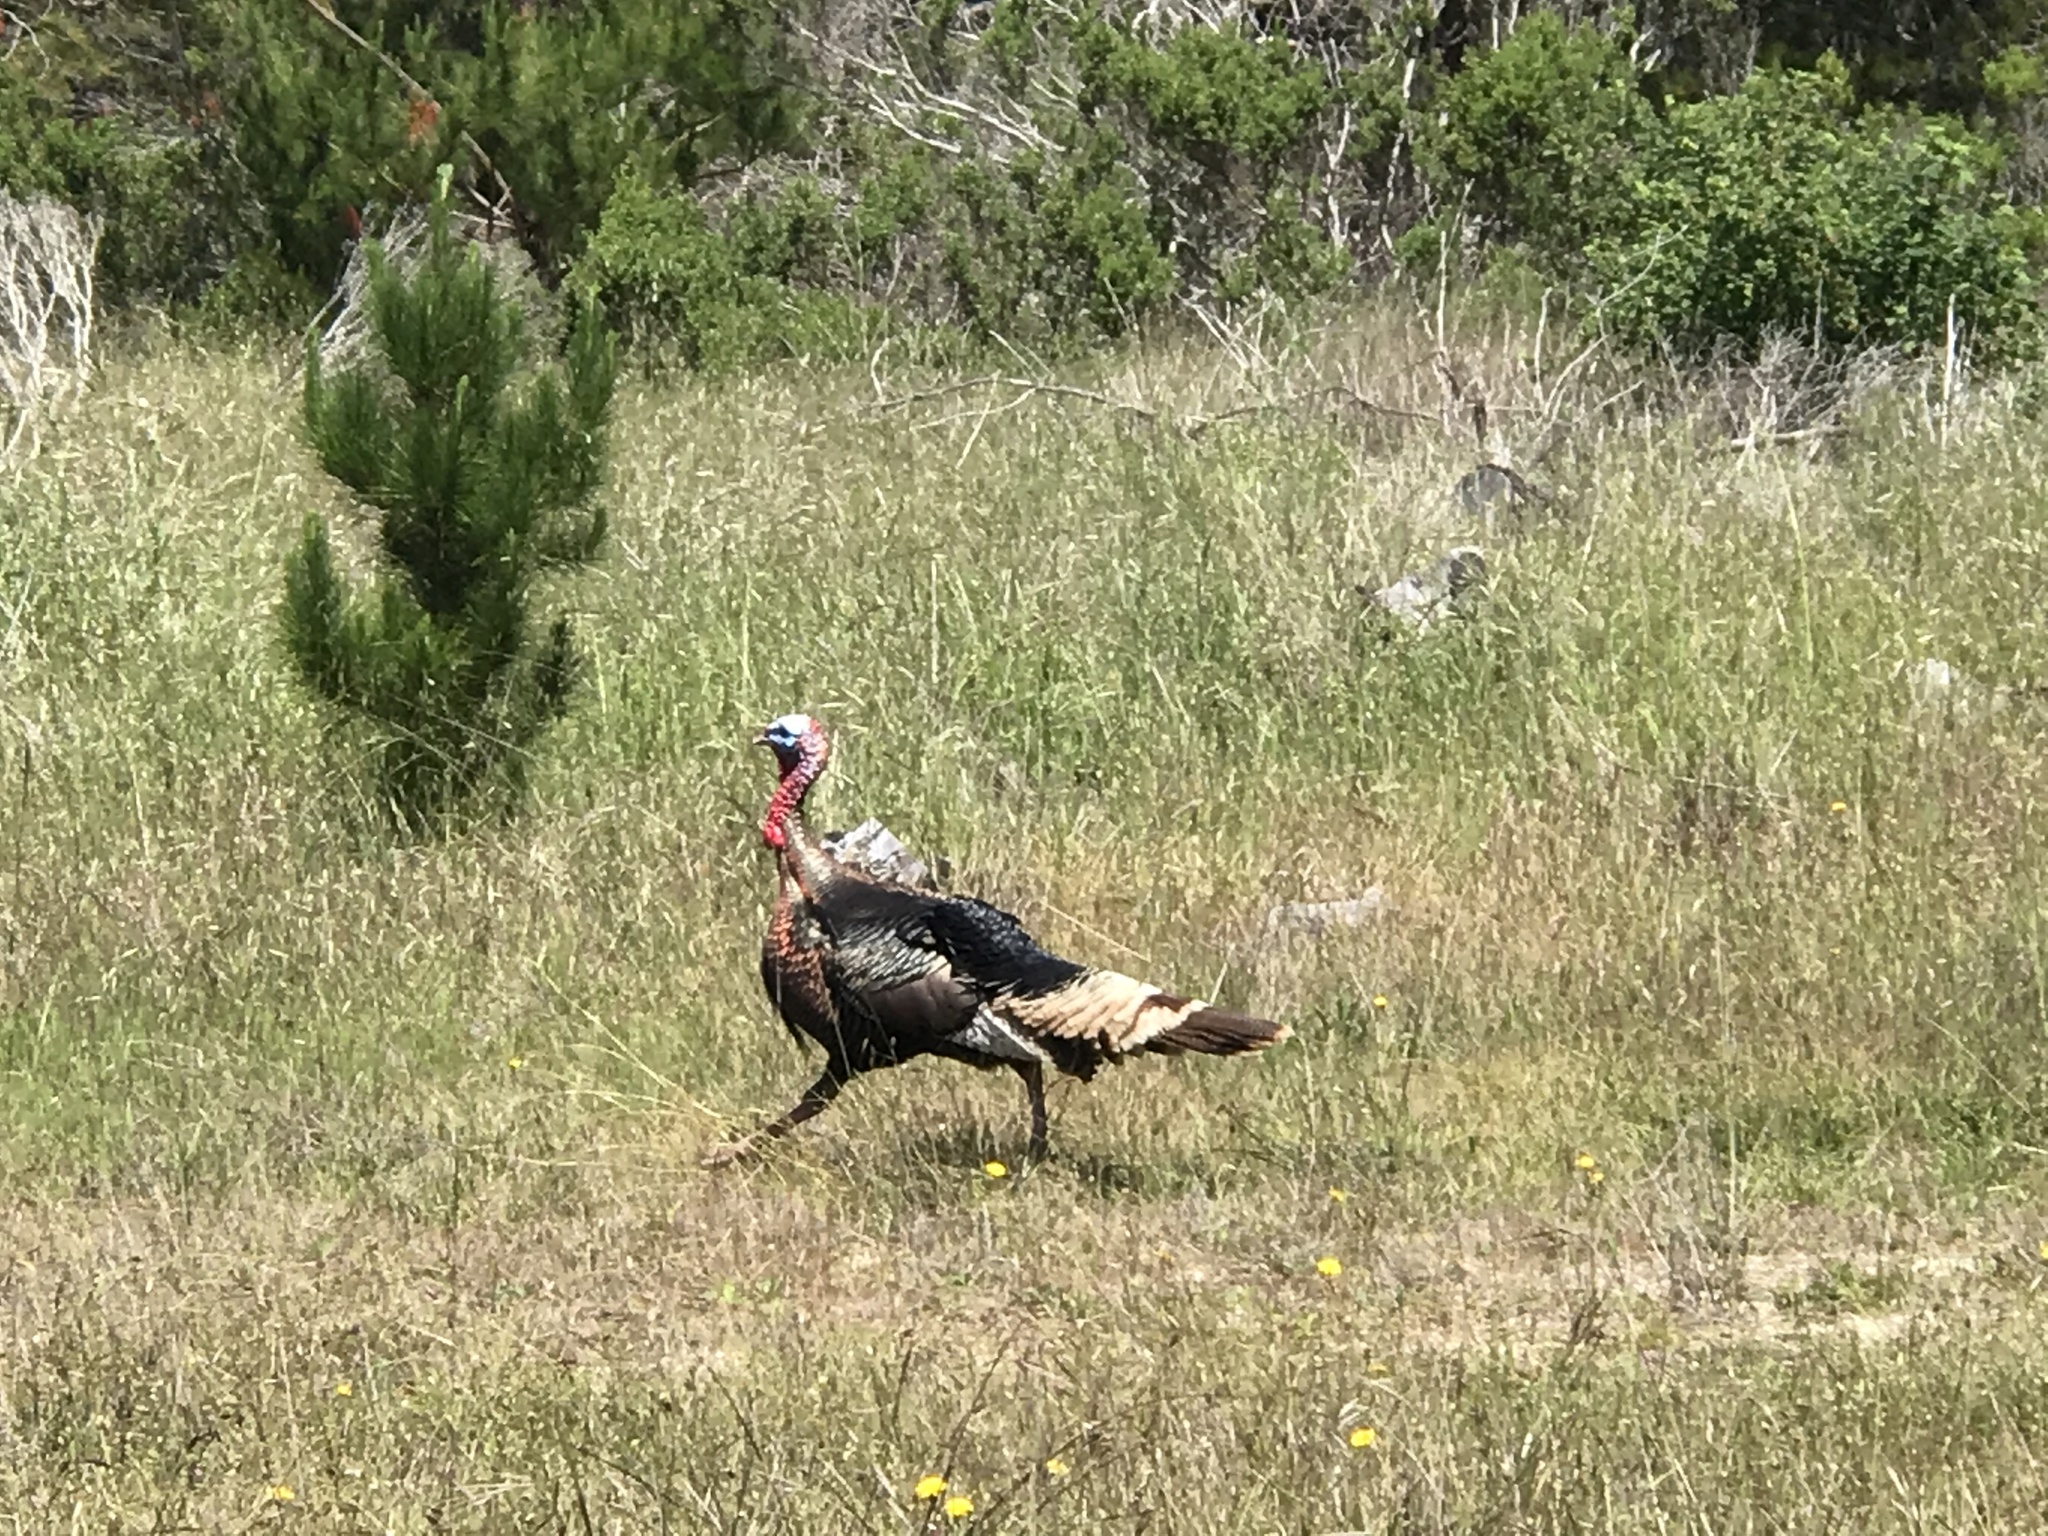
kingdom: Animalia
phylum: Chordata
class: Aves
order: Galliformes
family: Phasianidae
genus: Meleagris
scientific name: Meleagris gallopavo
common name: Wild turkey
